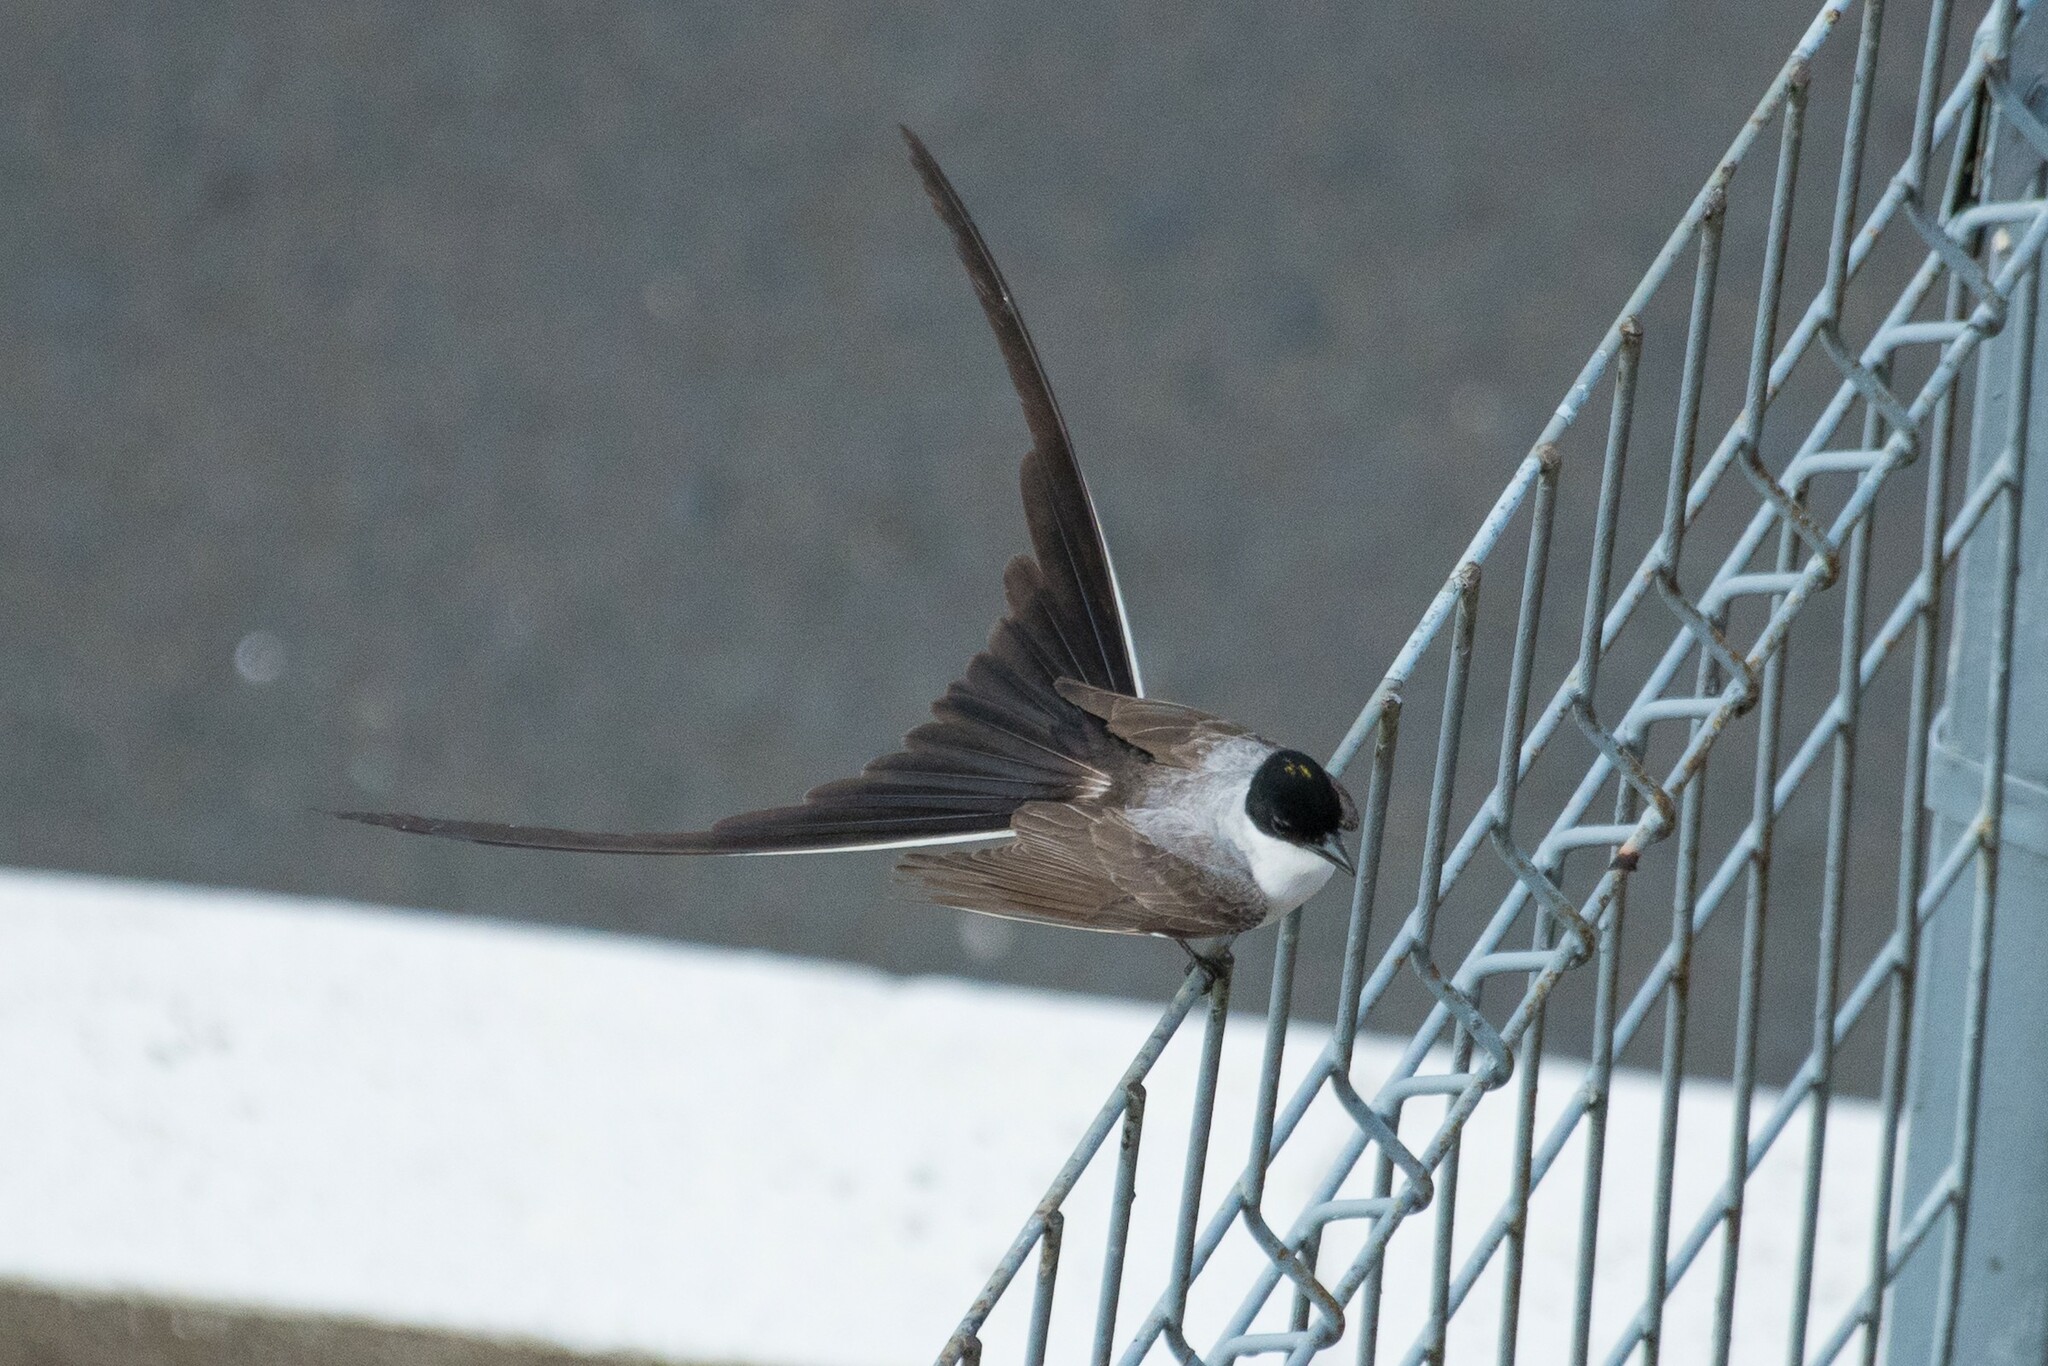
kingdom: Animalia
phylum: Chordata
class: Aves
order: Passeriformes
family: Tyrannidae
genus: Tyrannus
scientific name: Tyrannus savana
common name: Fork-tailed flycatcher
